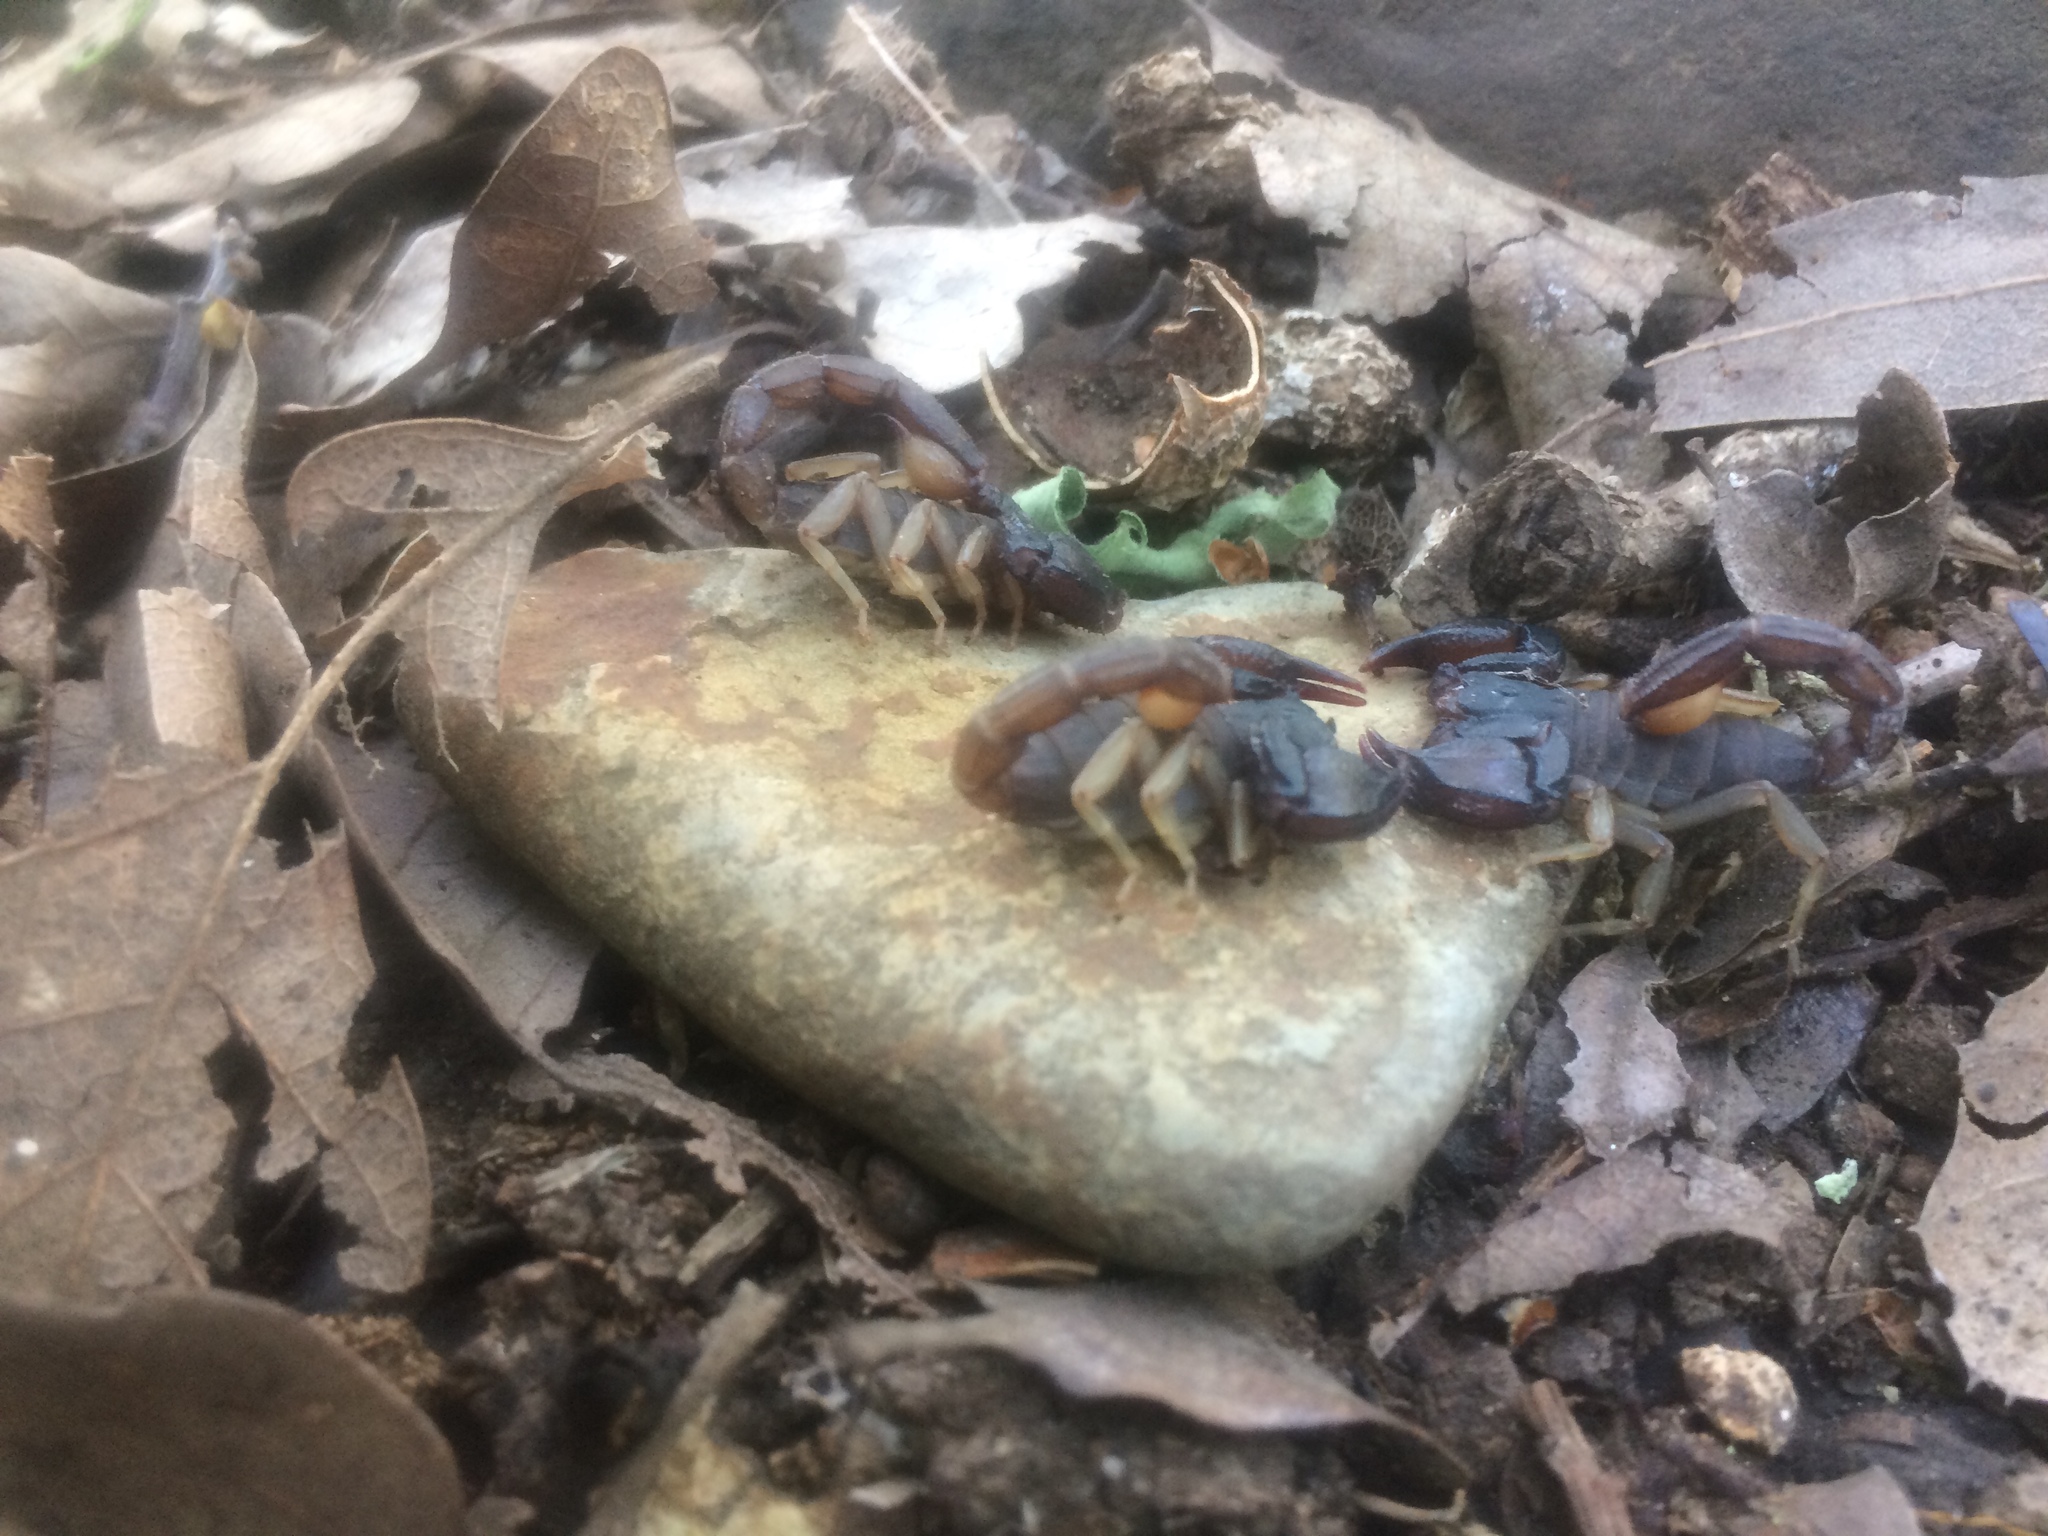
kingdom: Animalia
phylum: Arthropoda
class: Arachnida
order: Scorpiones
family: Chactidae
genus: Uroctonus
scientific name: Uroctonus mordax
